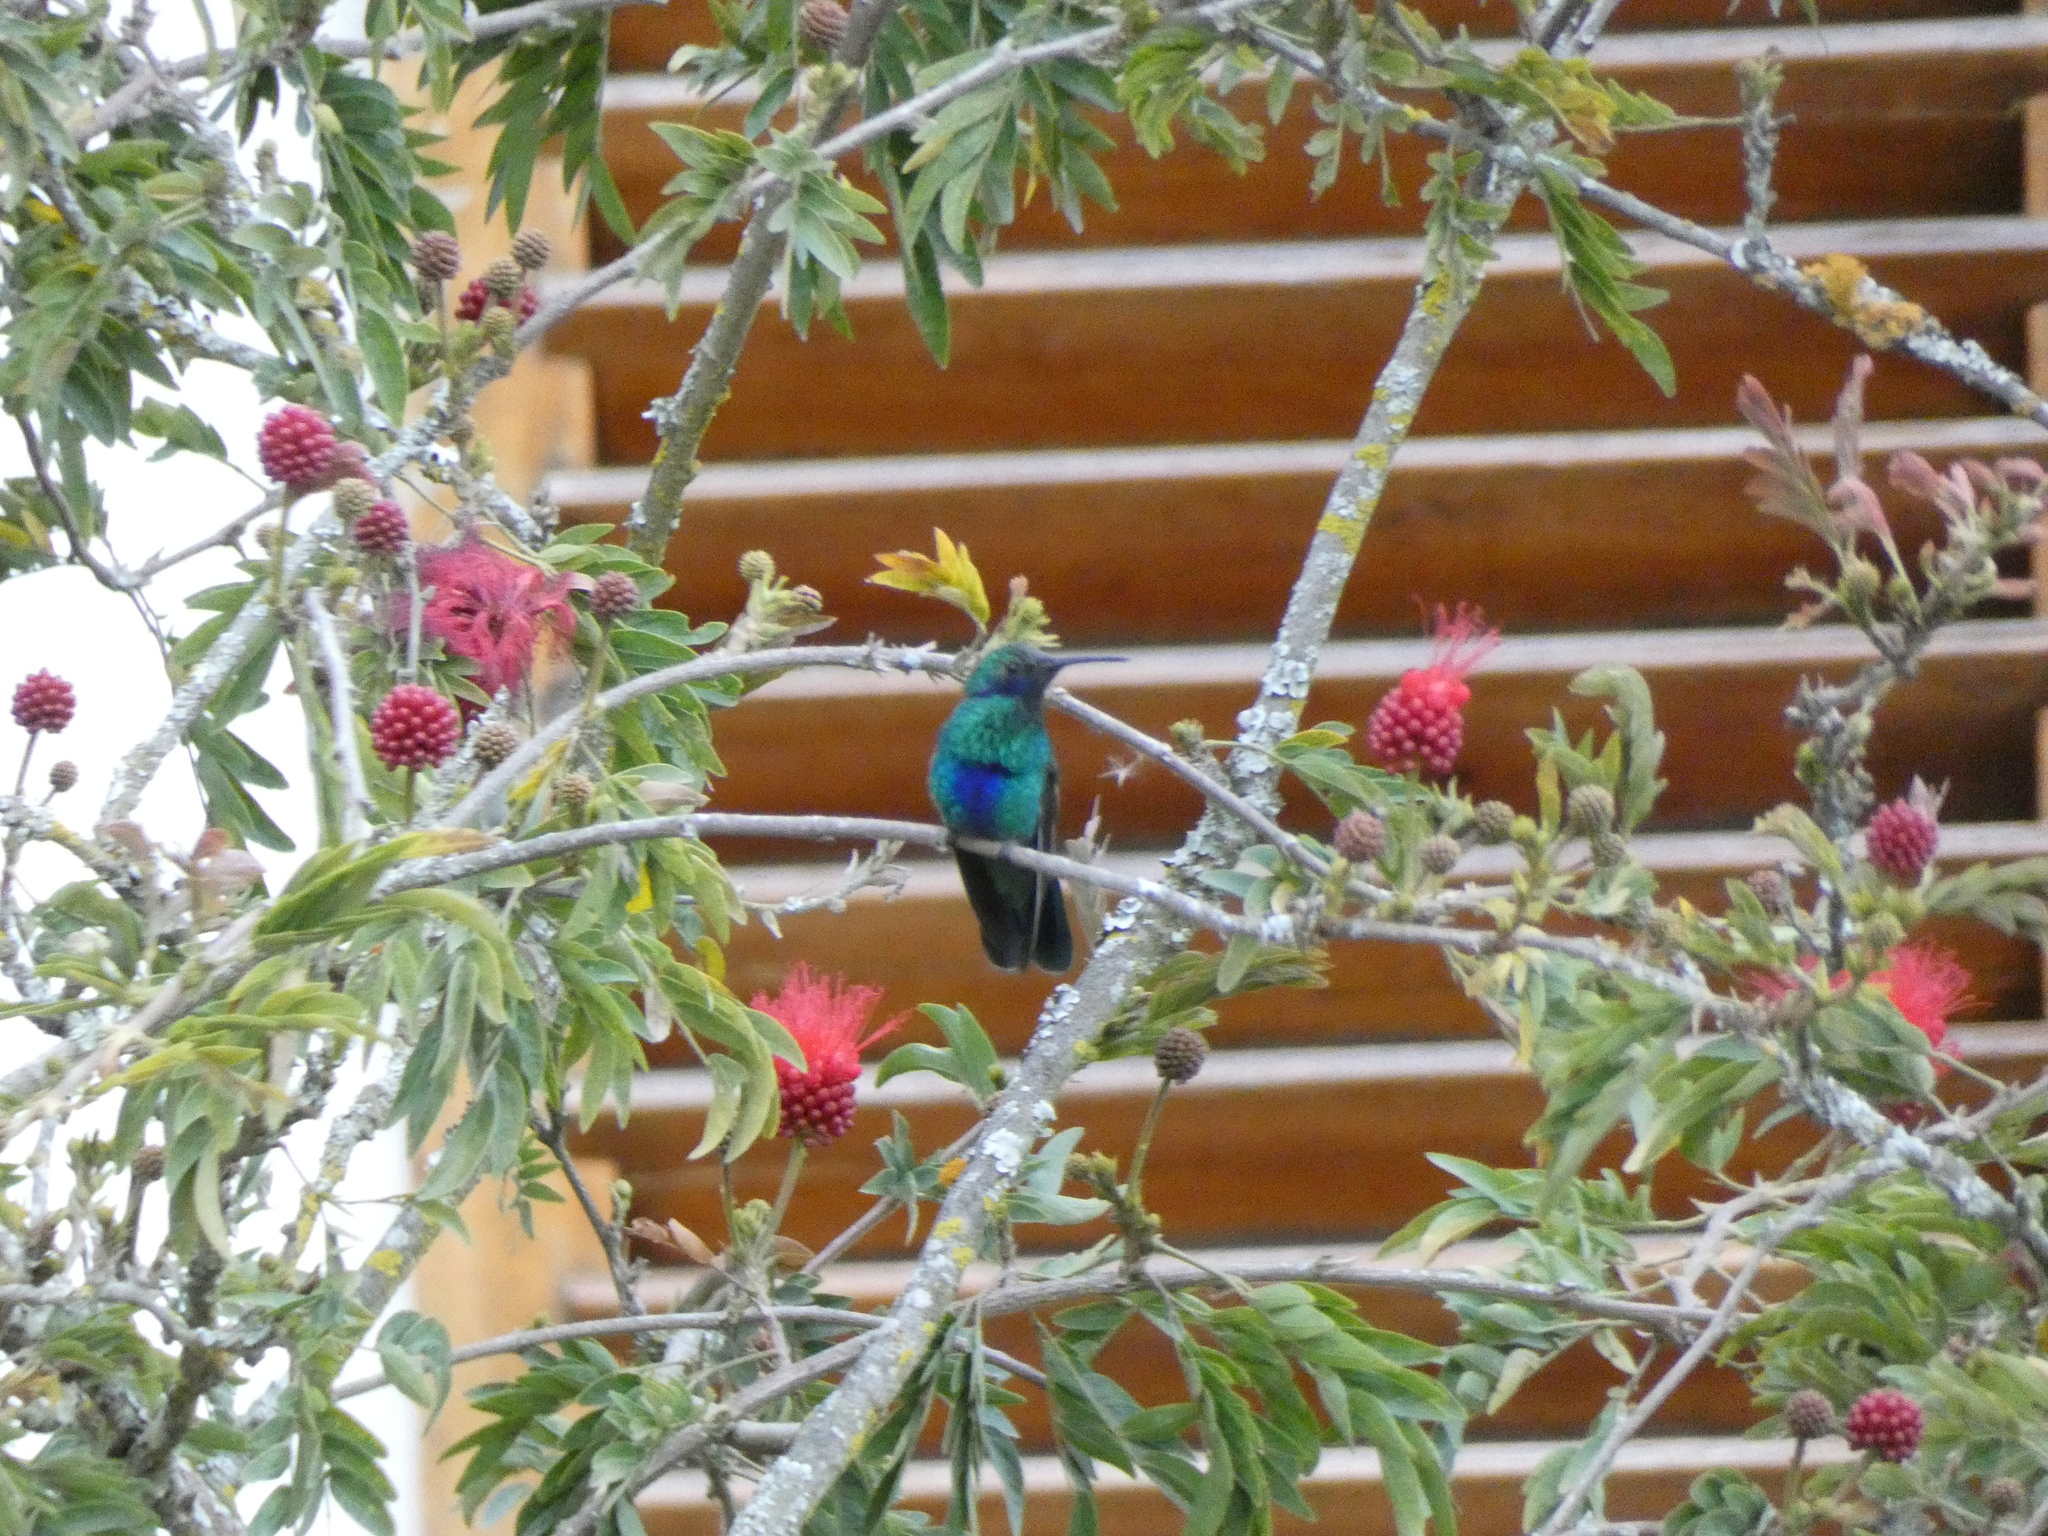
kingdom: Animalia
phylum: Chordata
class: Aves
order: Apodiformes
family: Trochilidae
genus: Colibri
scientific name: Colibri coruscans
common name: Sparkling violetear
